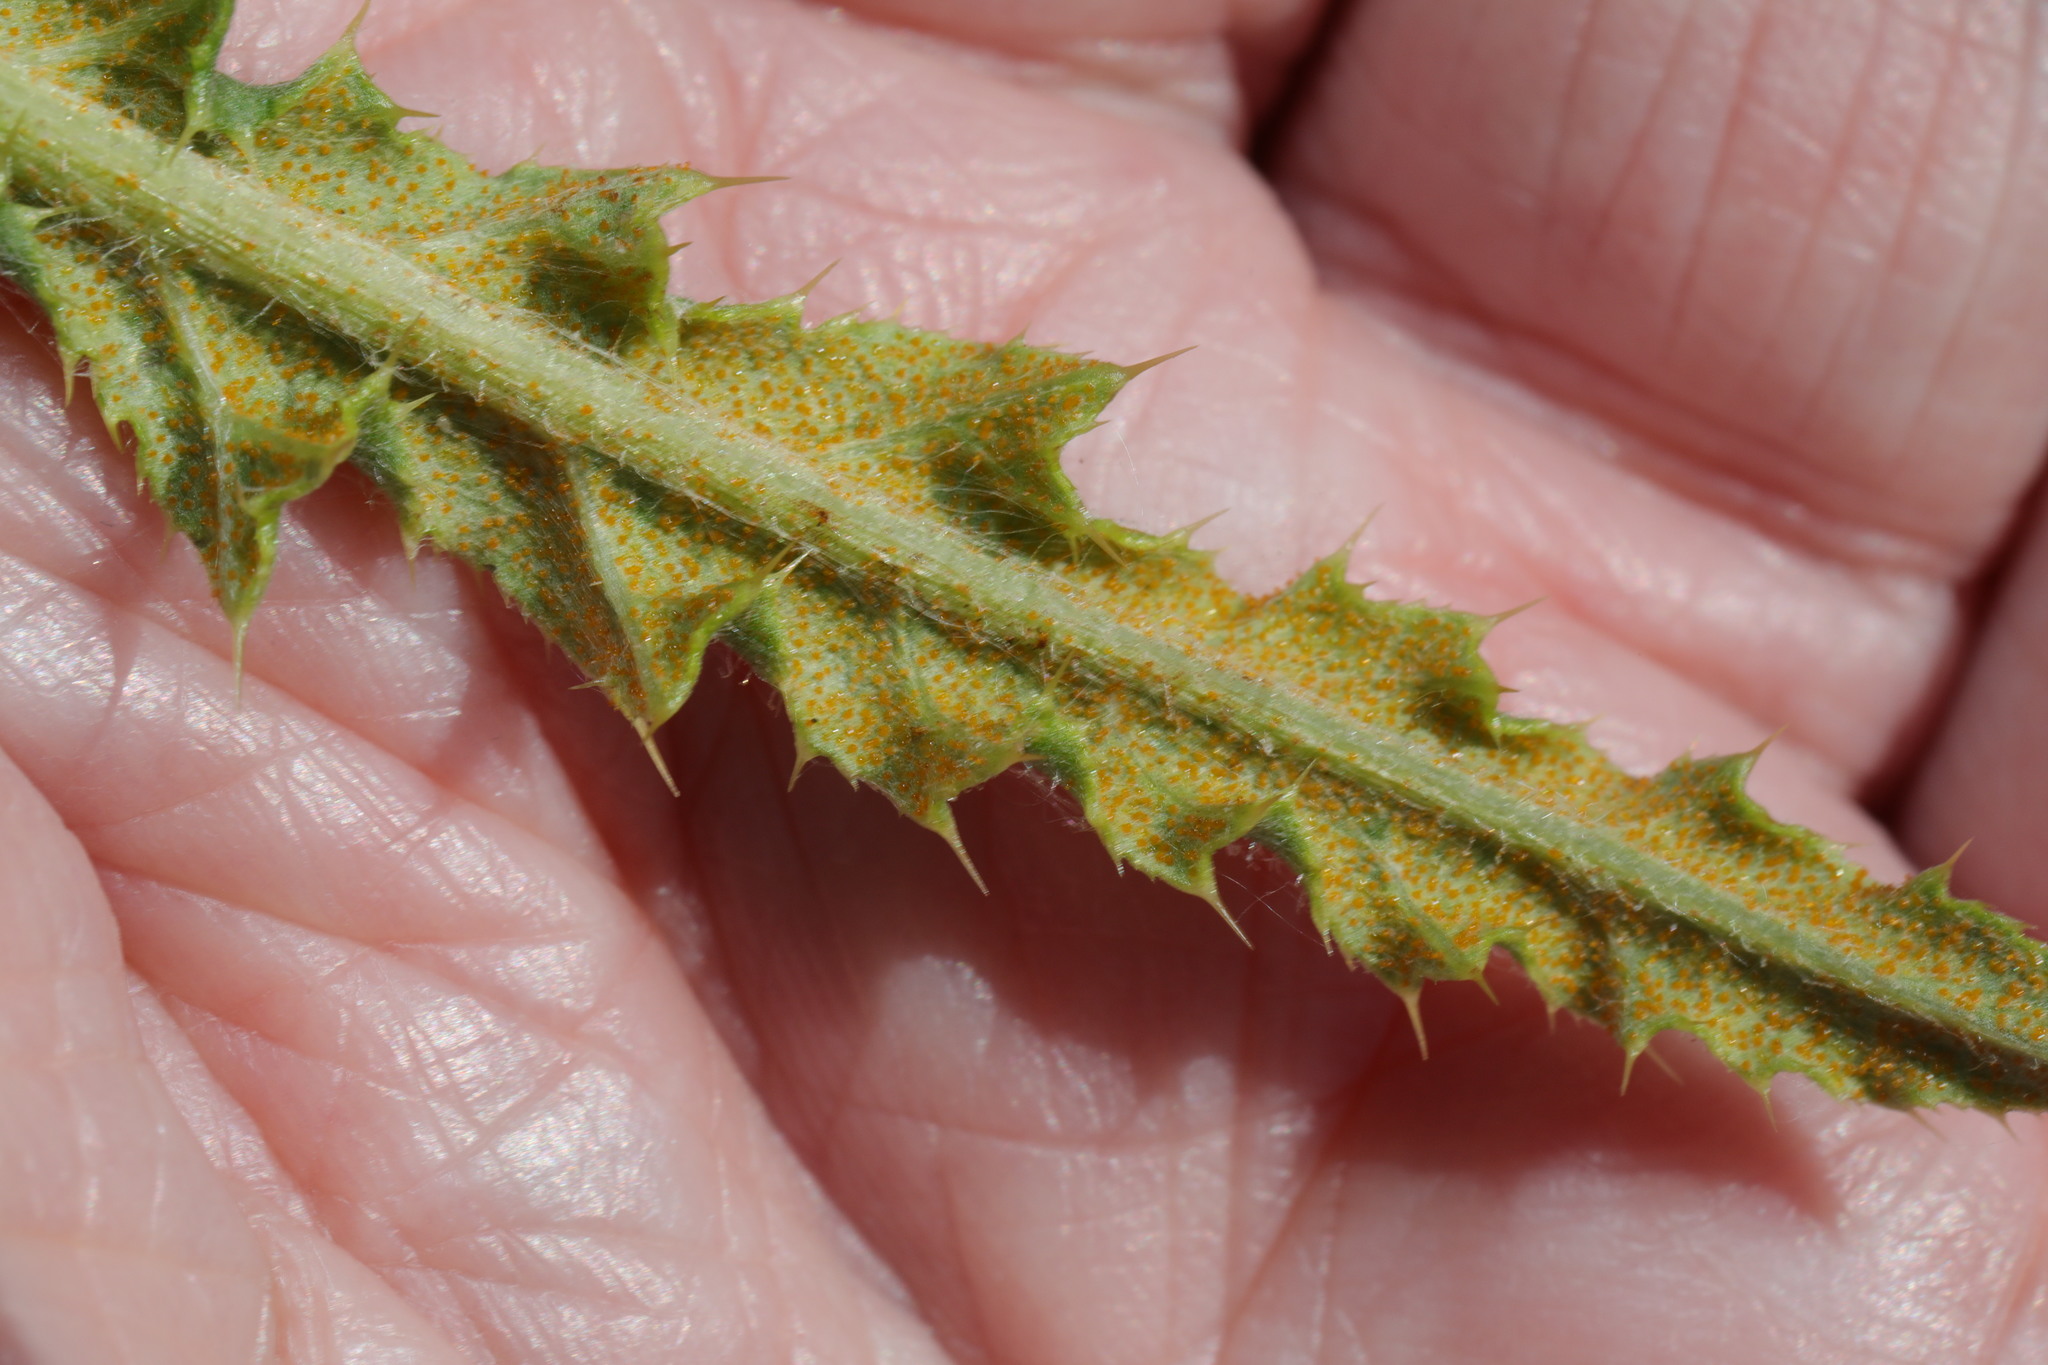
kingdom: Fungi
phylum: Basidiomycota
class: Pucciniomycetes
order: Pucciniales
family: Pucciniaceae
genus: Puccinia
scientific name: Puccinia suaveolens
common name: Thistle rust
